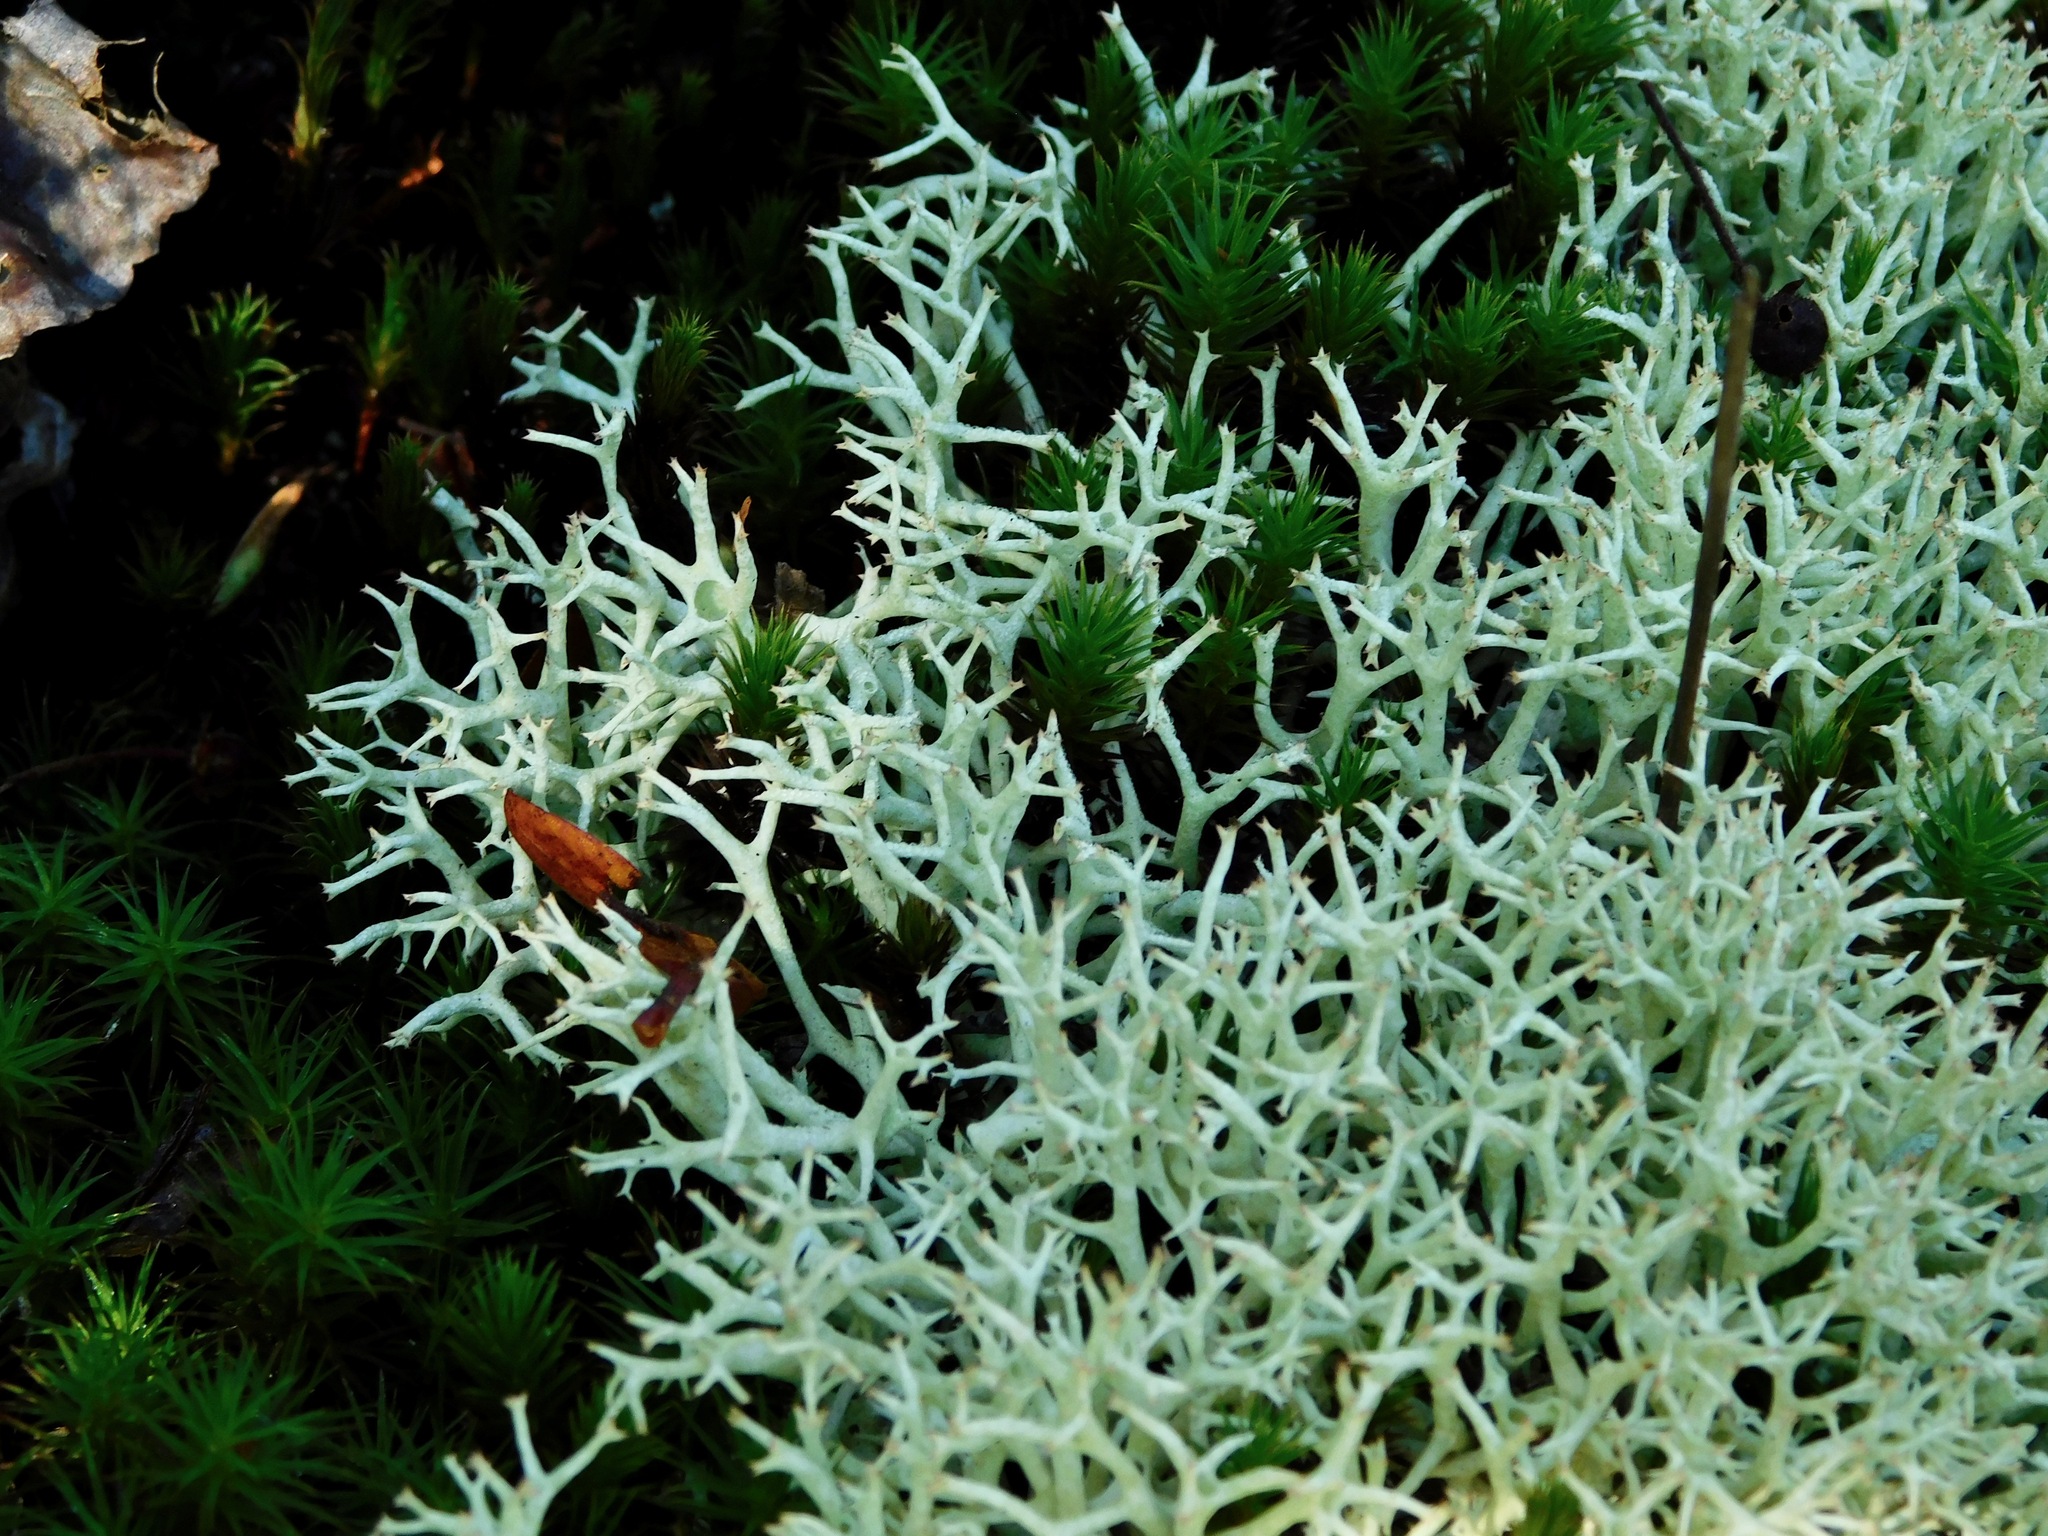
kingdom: Fungi
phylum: Ascomycota
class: Lecanoromycetes
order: Lecanorales
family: Cladoniaceae
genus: Cladonia
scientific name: Cladonia uncialis
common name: Thorn lichen
